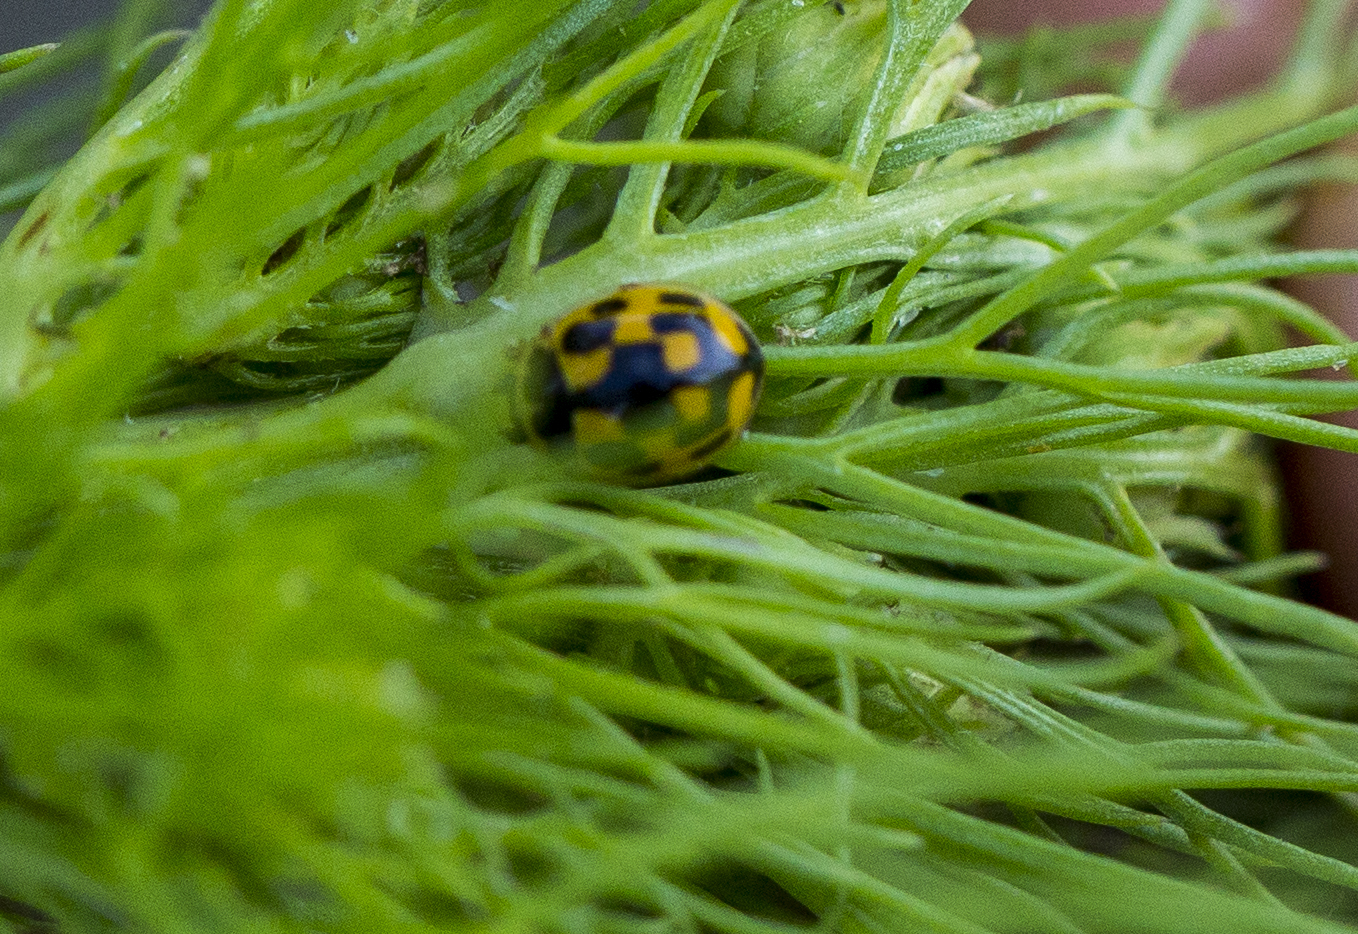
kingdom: Animalia
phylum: Arthropoda
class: Insecta
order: Coleoptera
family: Coccinellidae
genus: Propylaea
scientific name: Propylaea quatuordecimpunctata
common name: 14-spotted ladybird beetle
